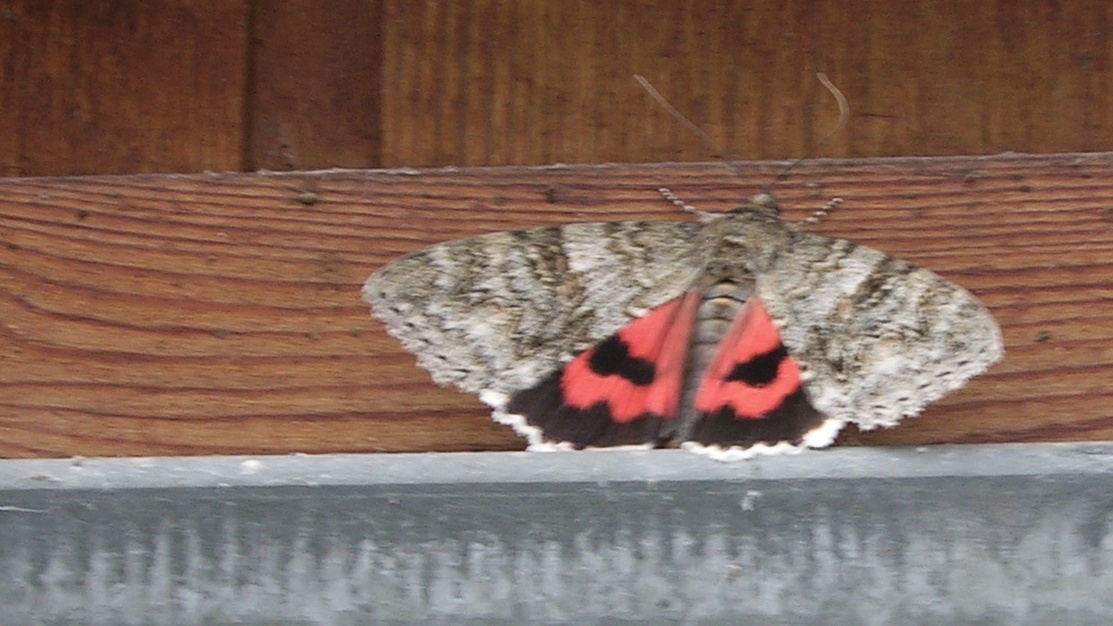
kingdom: Animalia
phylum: Arthropoda
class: Insecta
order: Lepidoptera
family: Erebidae
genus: Catocala
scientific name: Catocala nupta
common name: Red underwing
